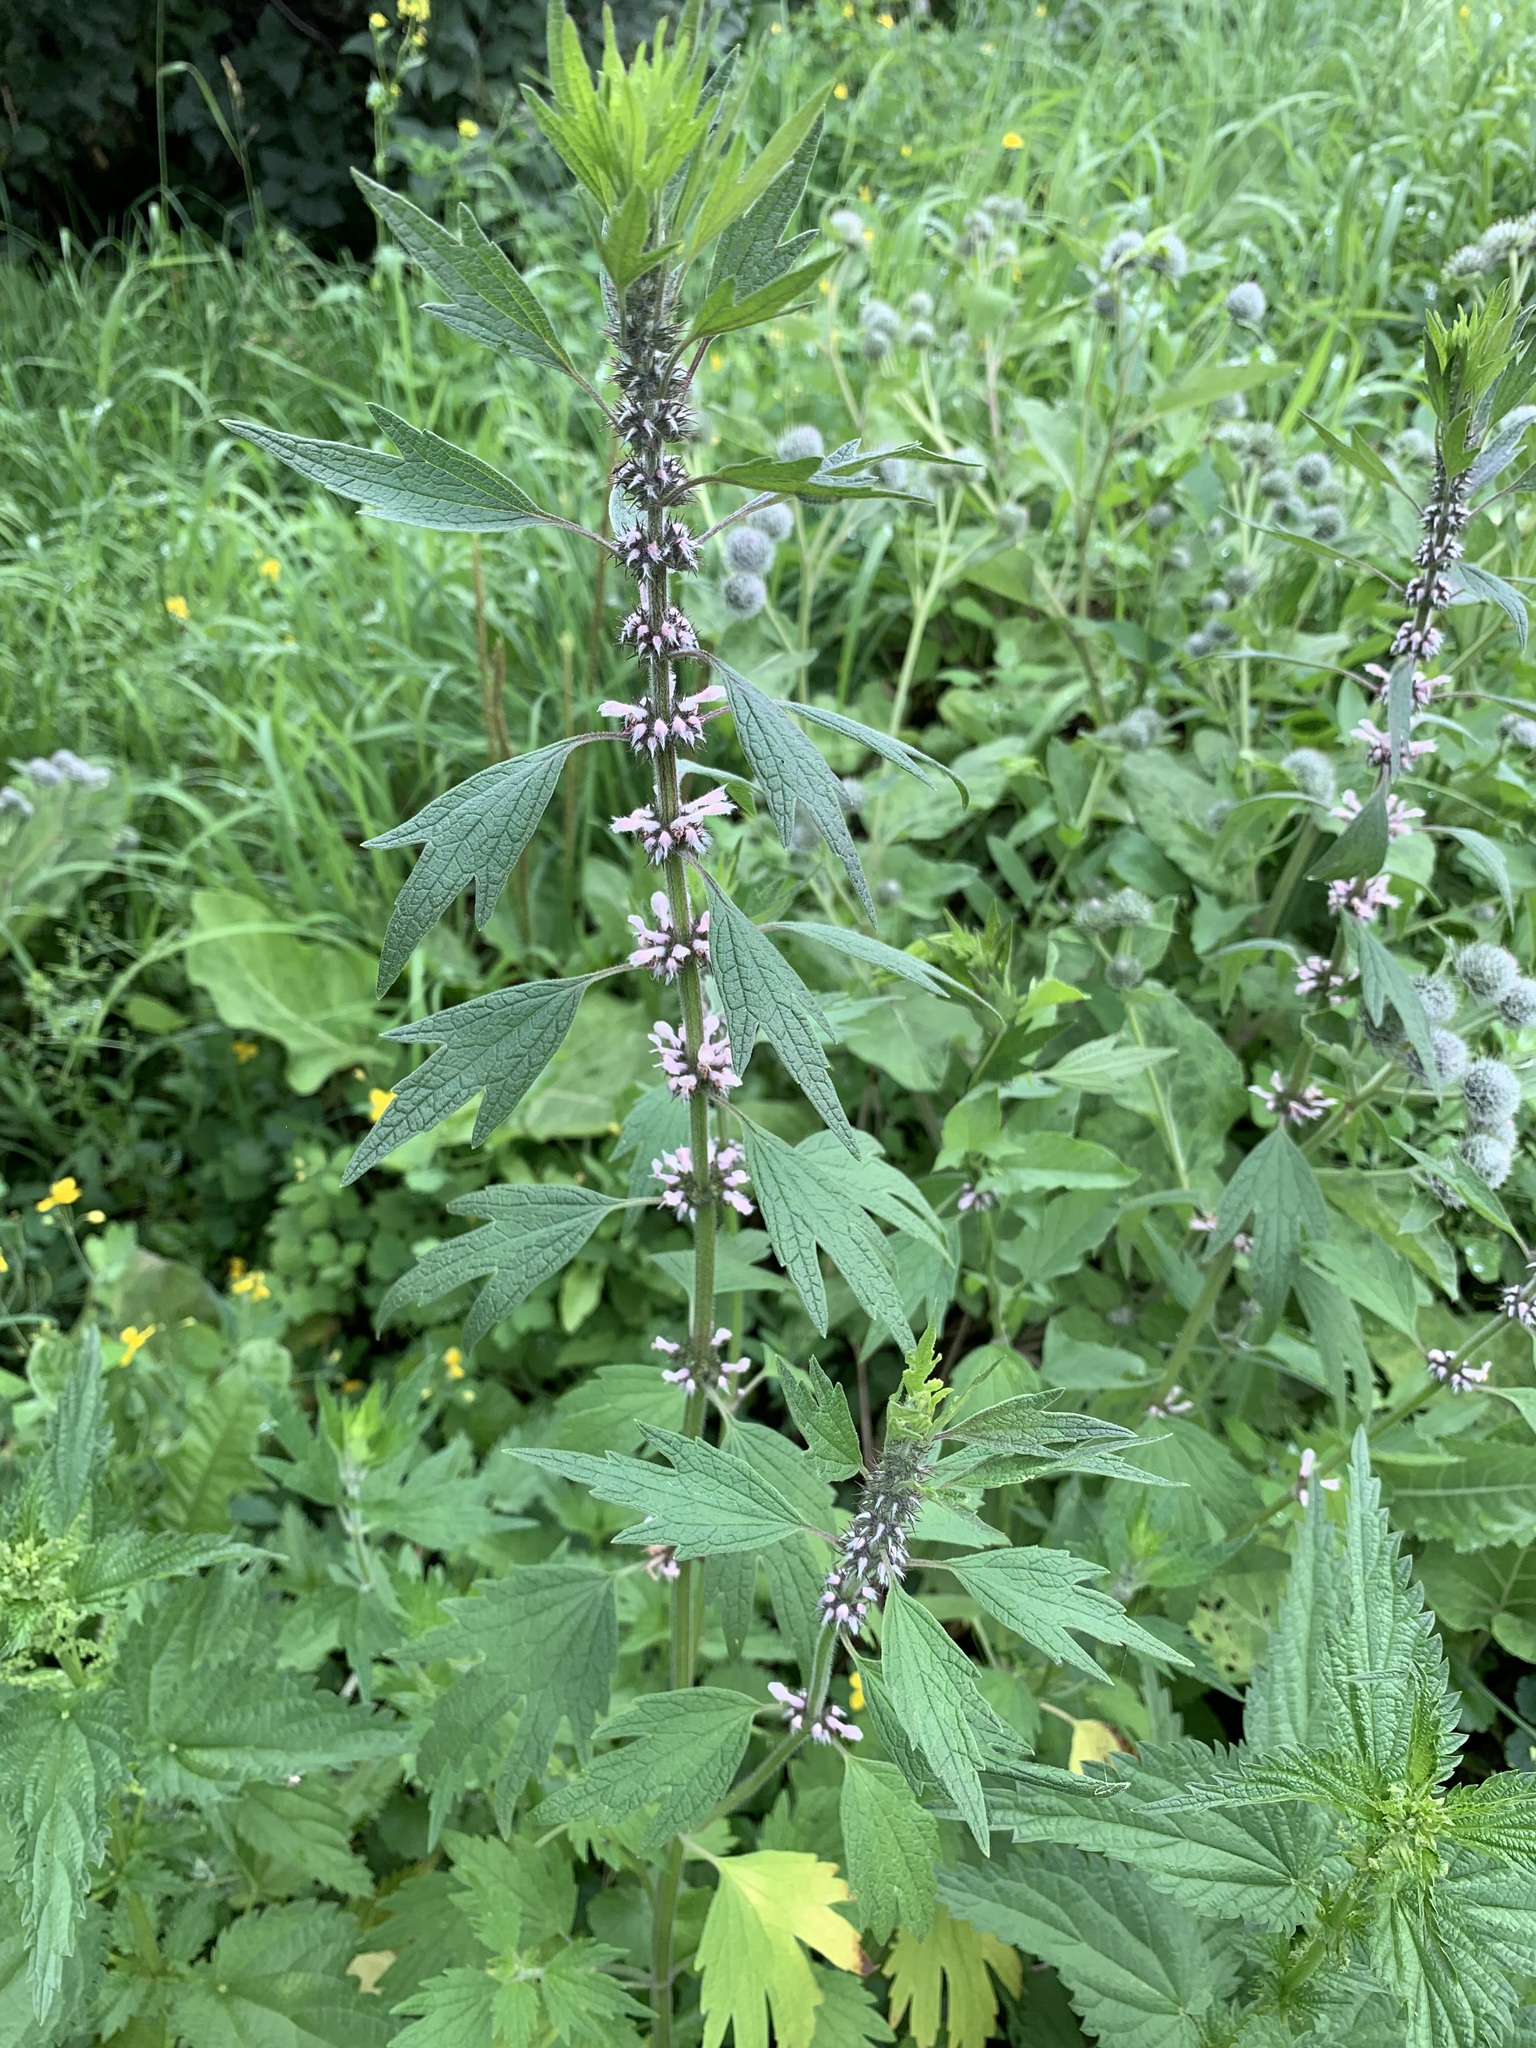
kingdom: Plantae
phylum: Tracheophyta
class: Magnoliopsida
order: Lamiales
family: Lamiaceae
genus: Leonurus
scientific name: Leonurus quinquelobatus
